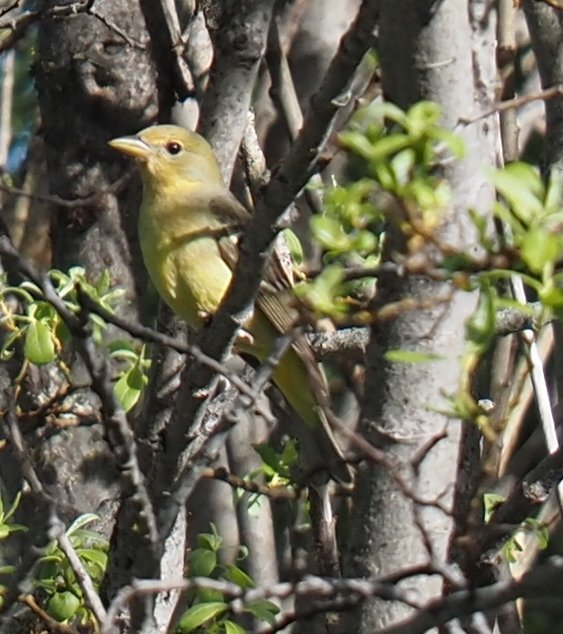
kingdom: Animalia
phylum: Chordata
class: Aves
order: Passeriformes
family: Cardinalidae
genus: Piranga
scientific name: Piranga ludoviciana
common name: Western tanager
